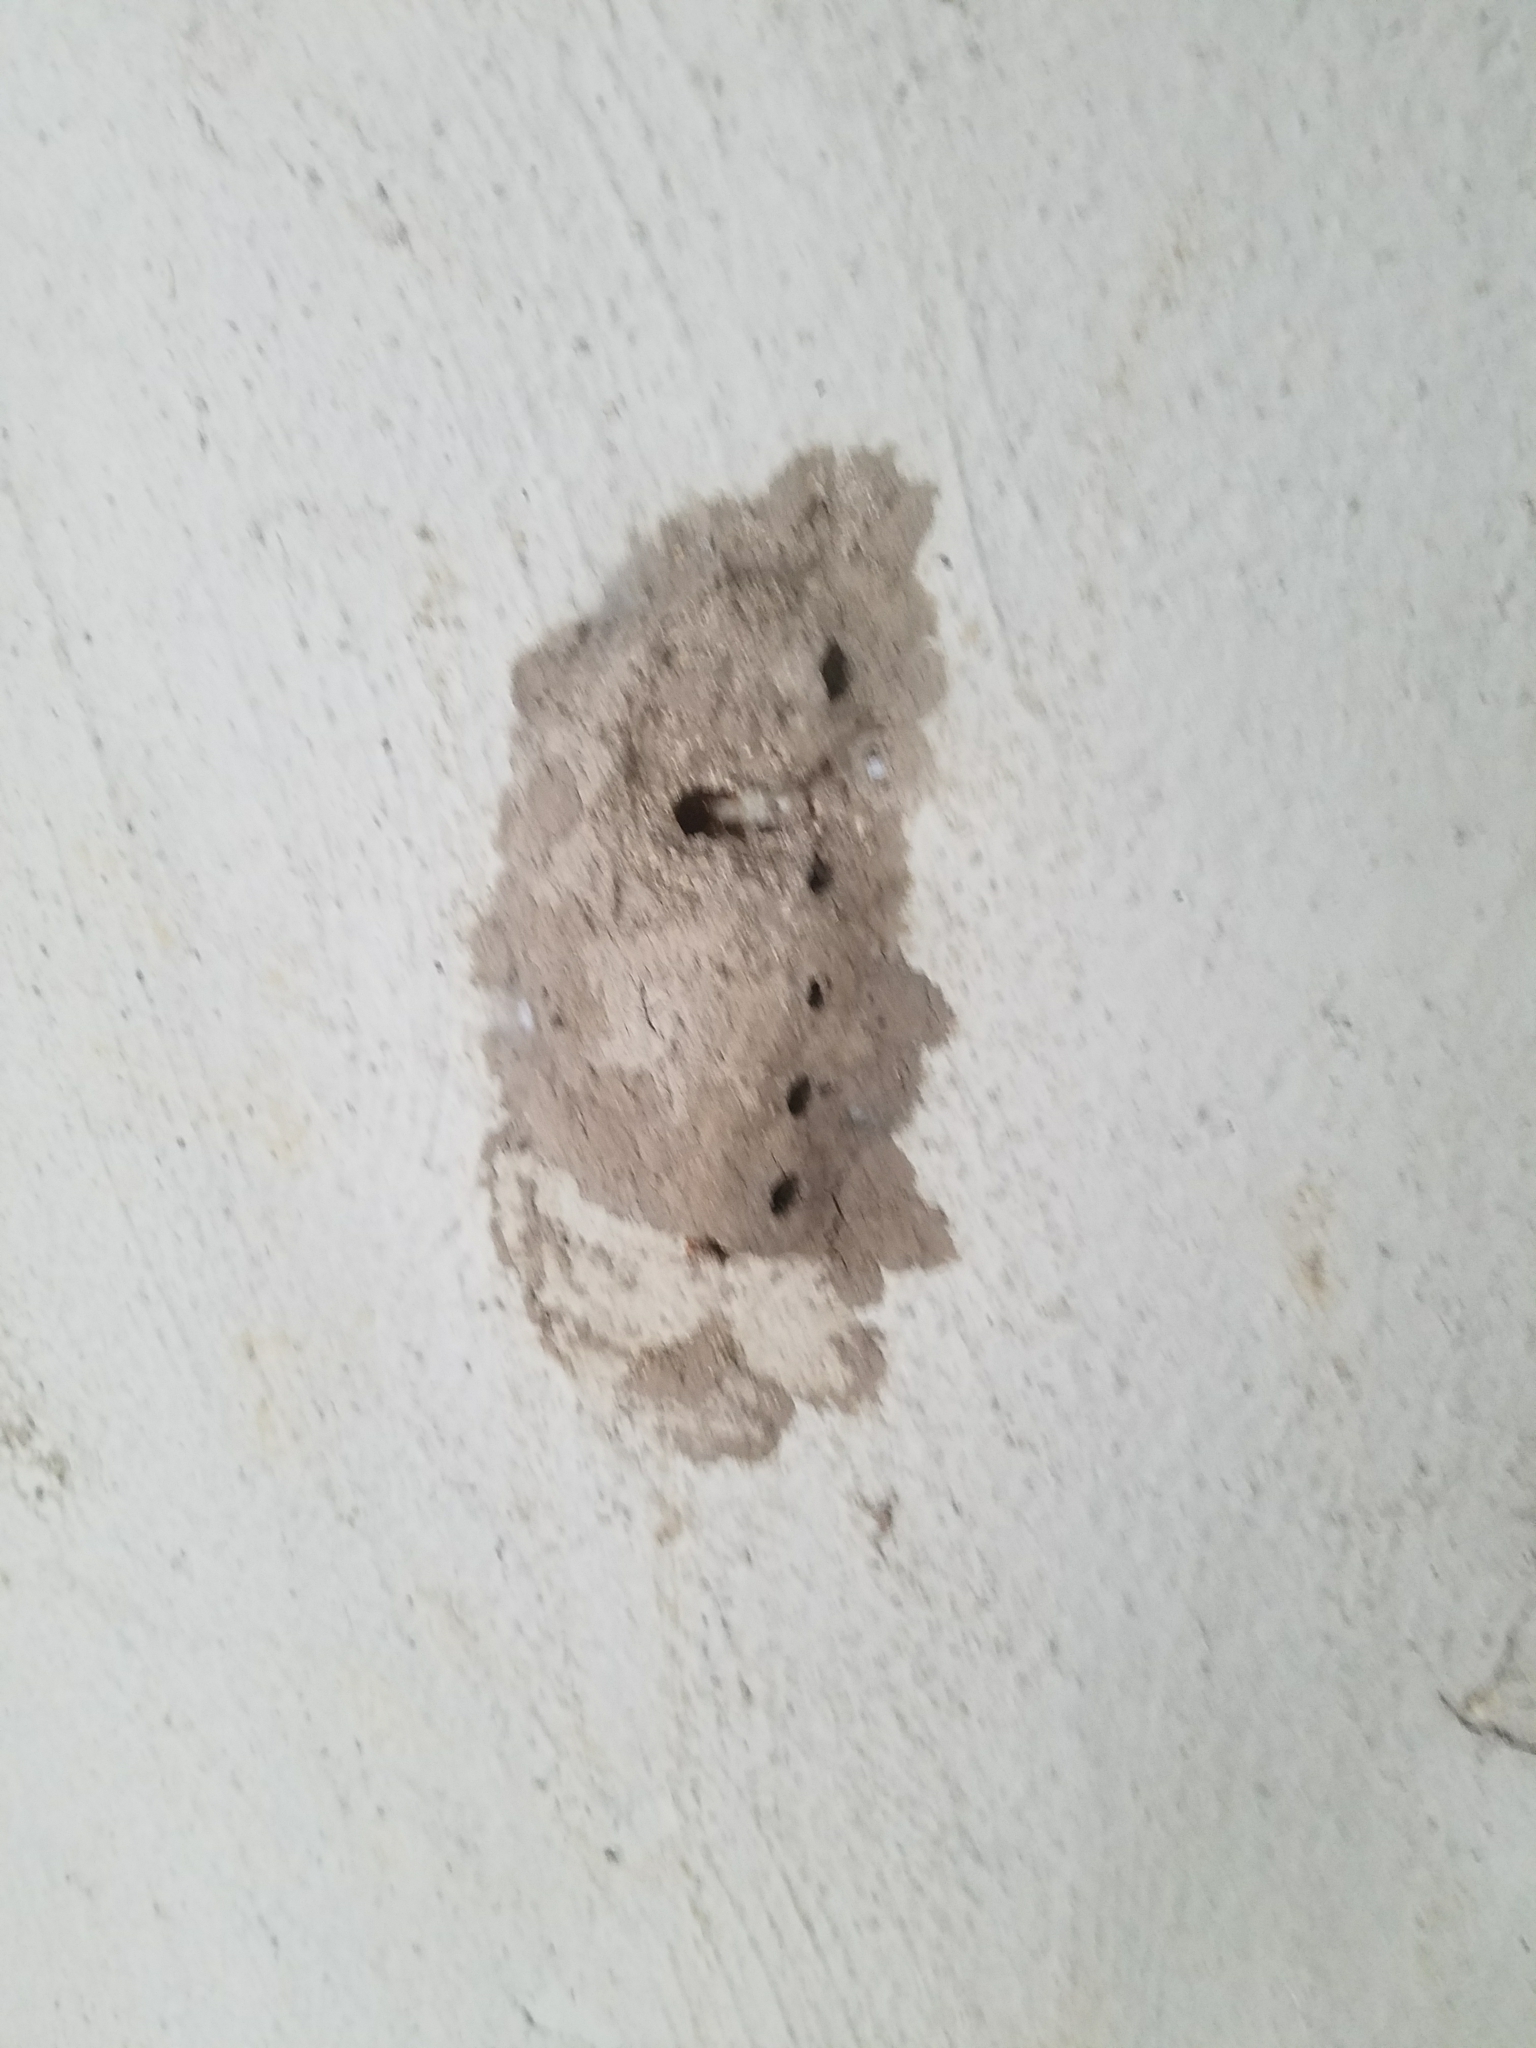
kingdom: Animalia
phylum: Arthropoda
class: Insecta
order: Hymenoptera
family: Sphecidae
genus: Sceliphron
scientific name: Sceliphron caementarium
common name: Mud dauber
